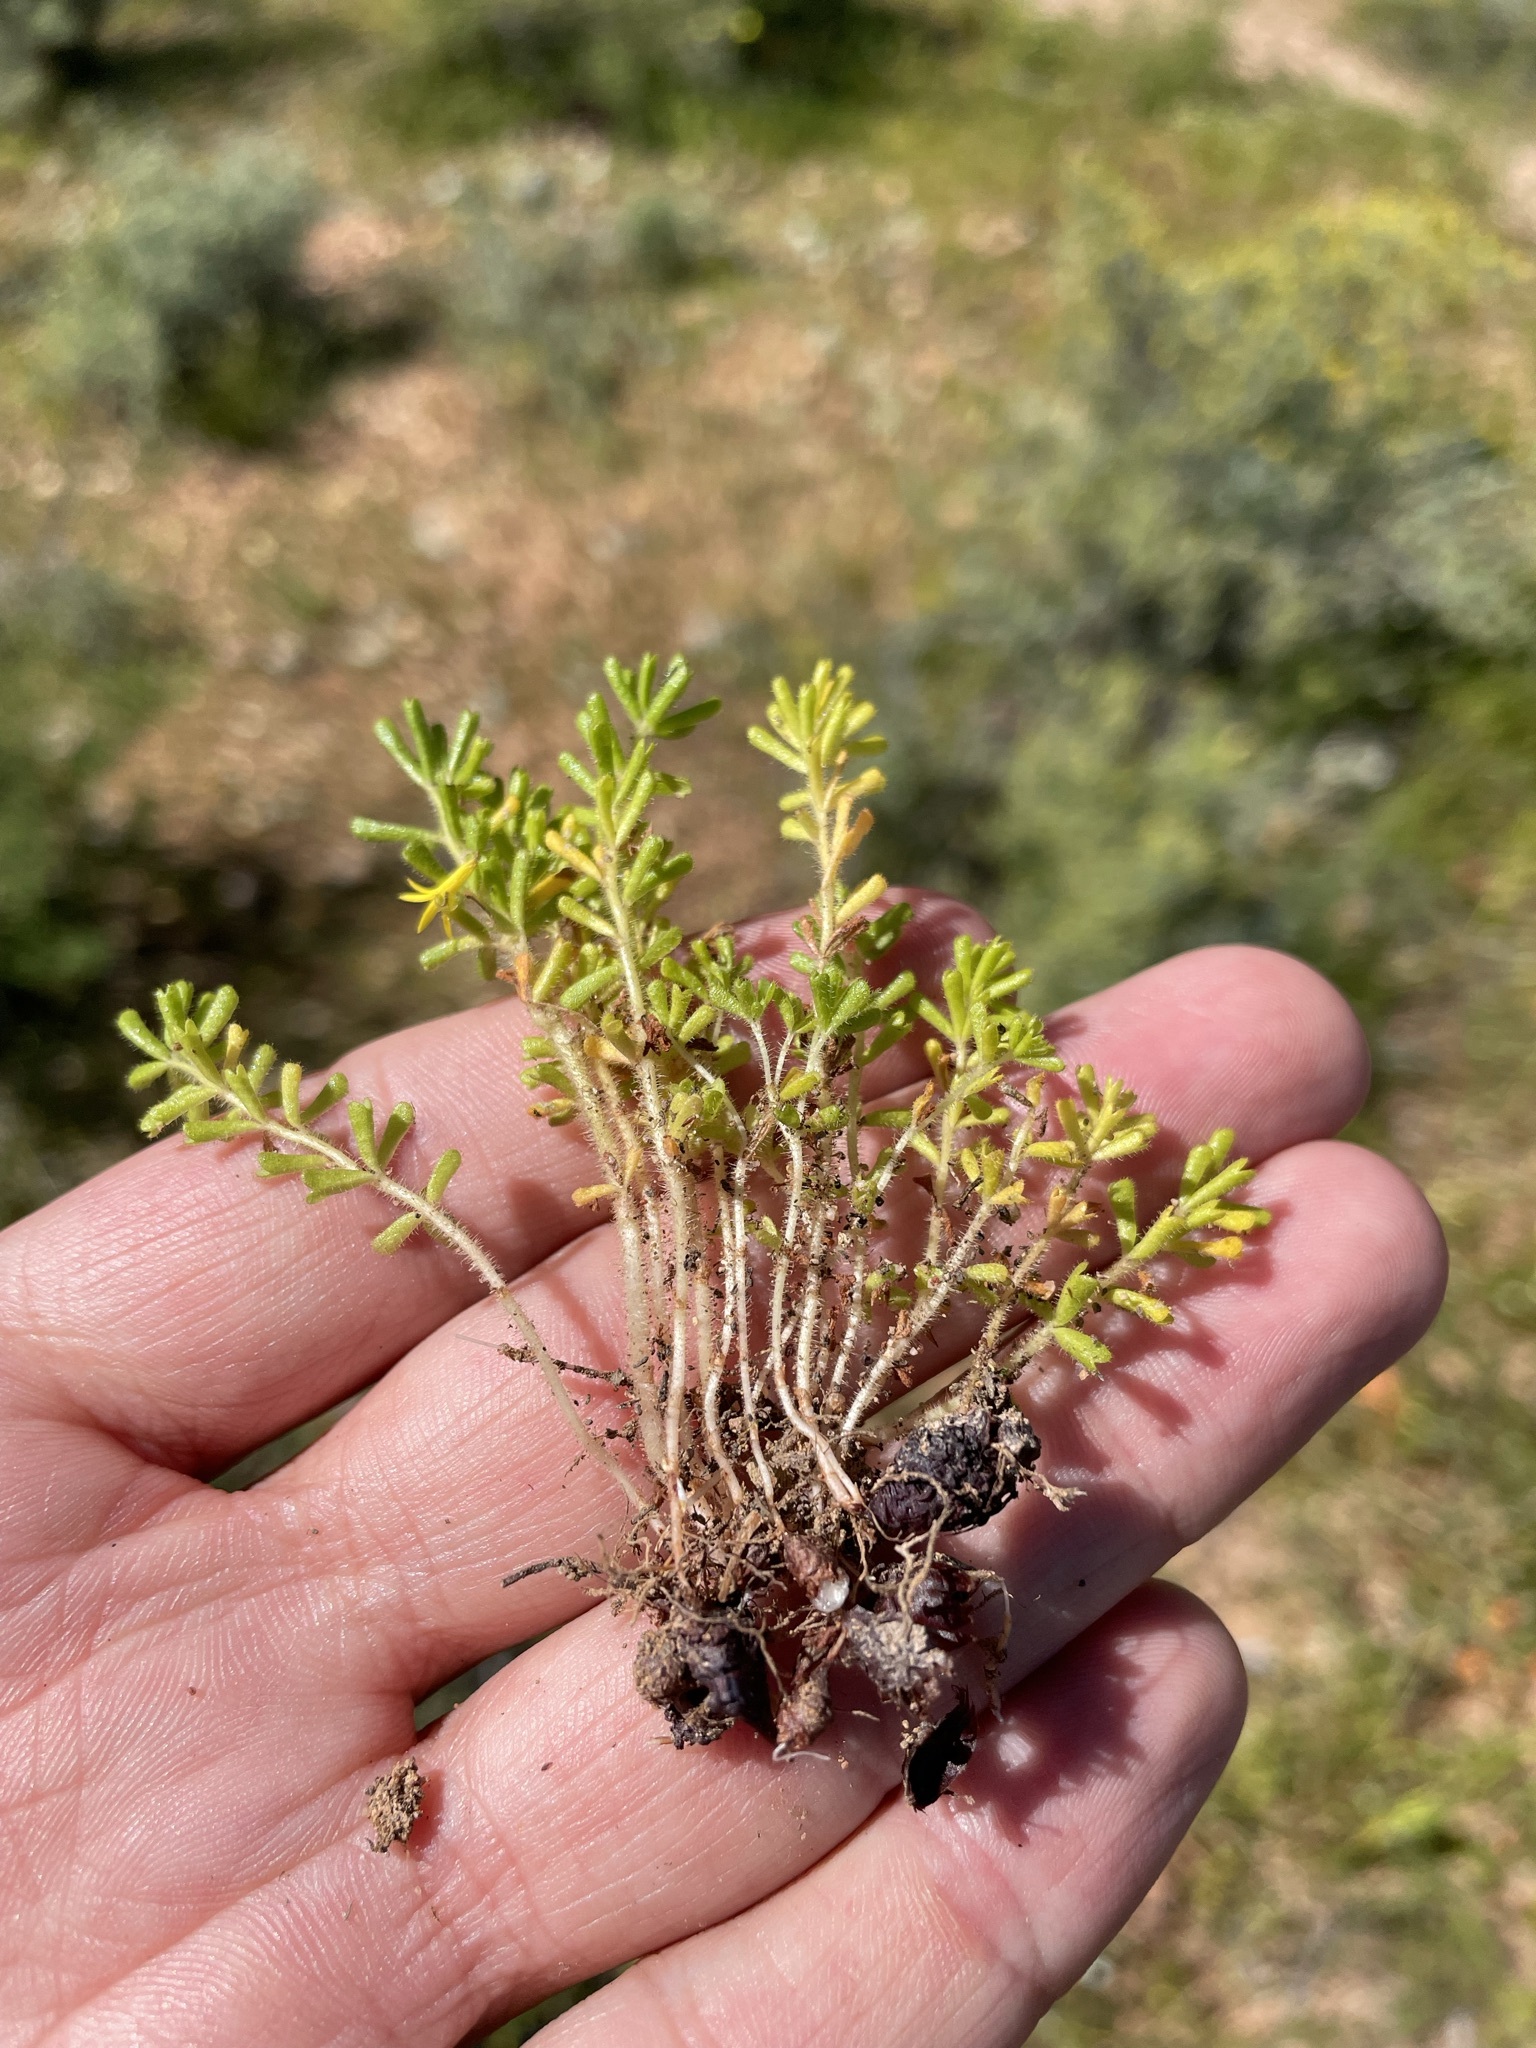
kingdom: Plantae
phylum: Tracheophyta
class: Magnoliopsida
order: Oxalidales
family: Oxalidaceae
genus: Oxalis
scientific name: Oxalis viscosa
